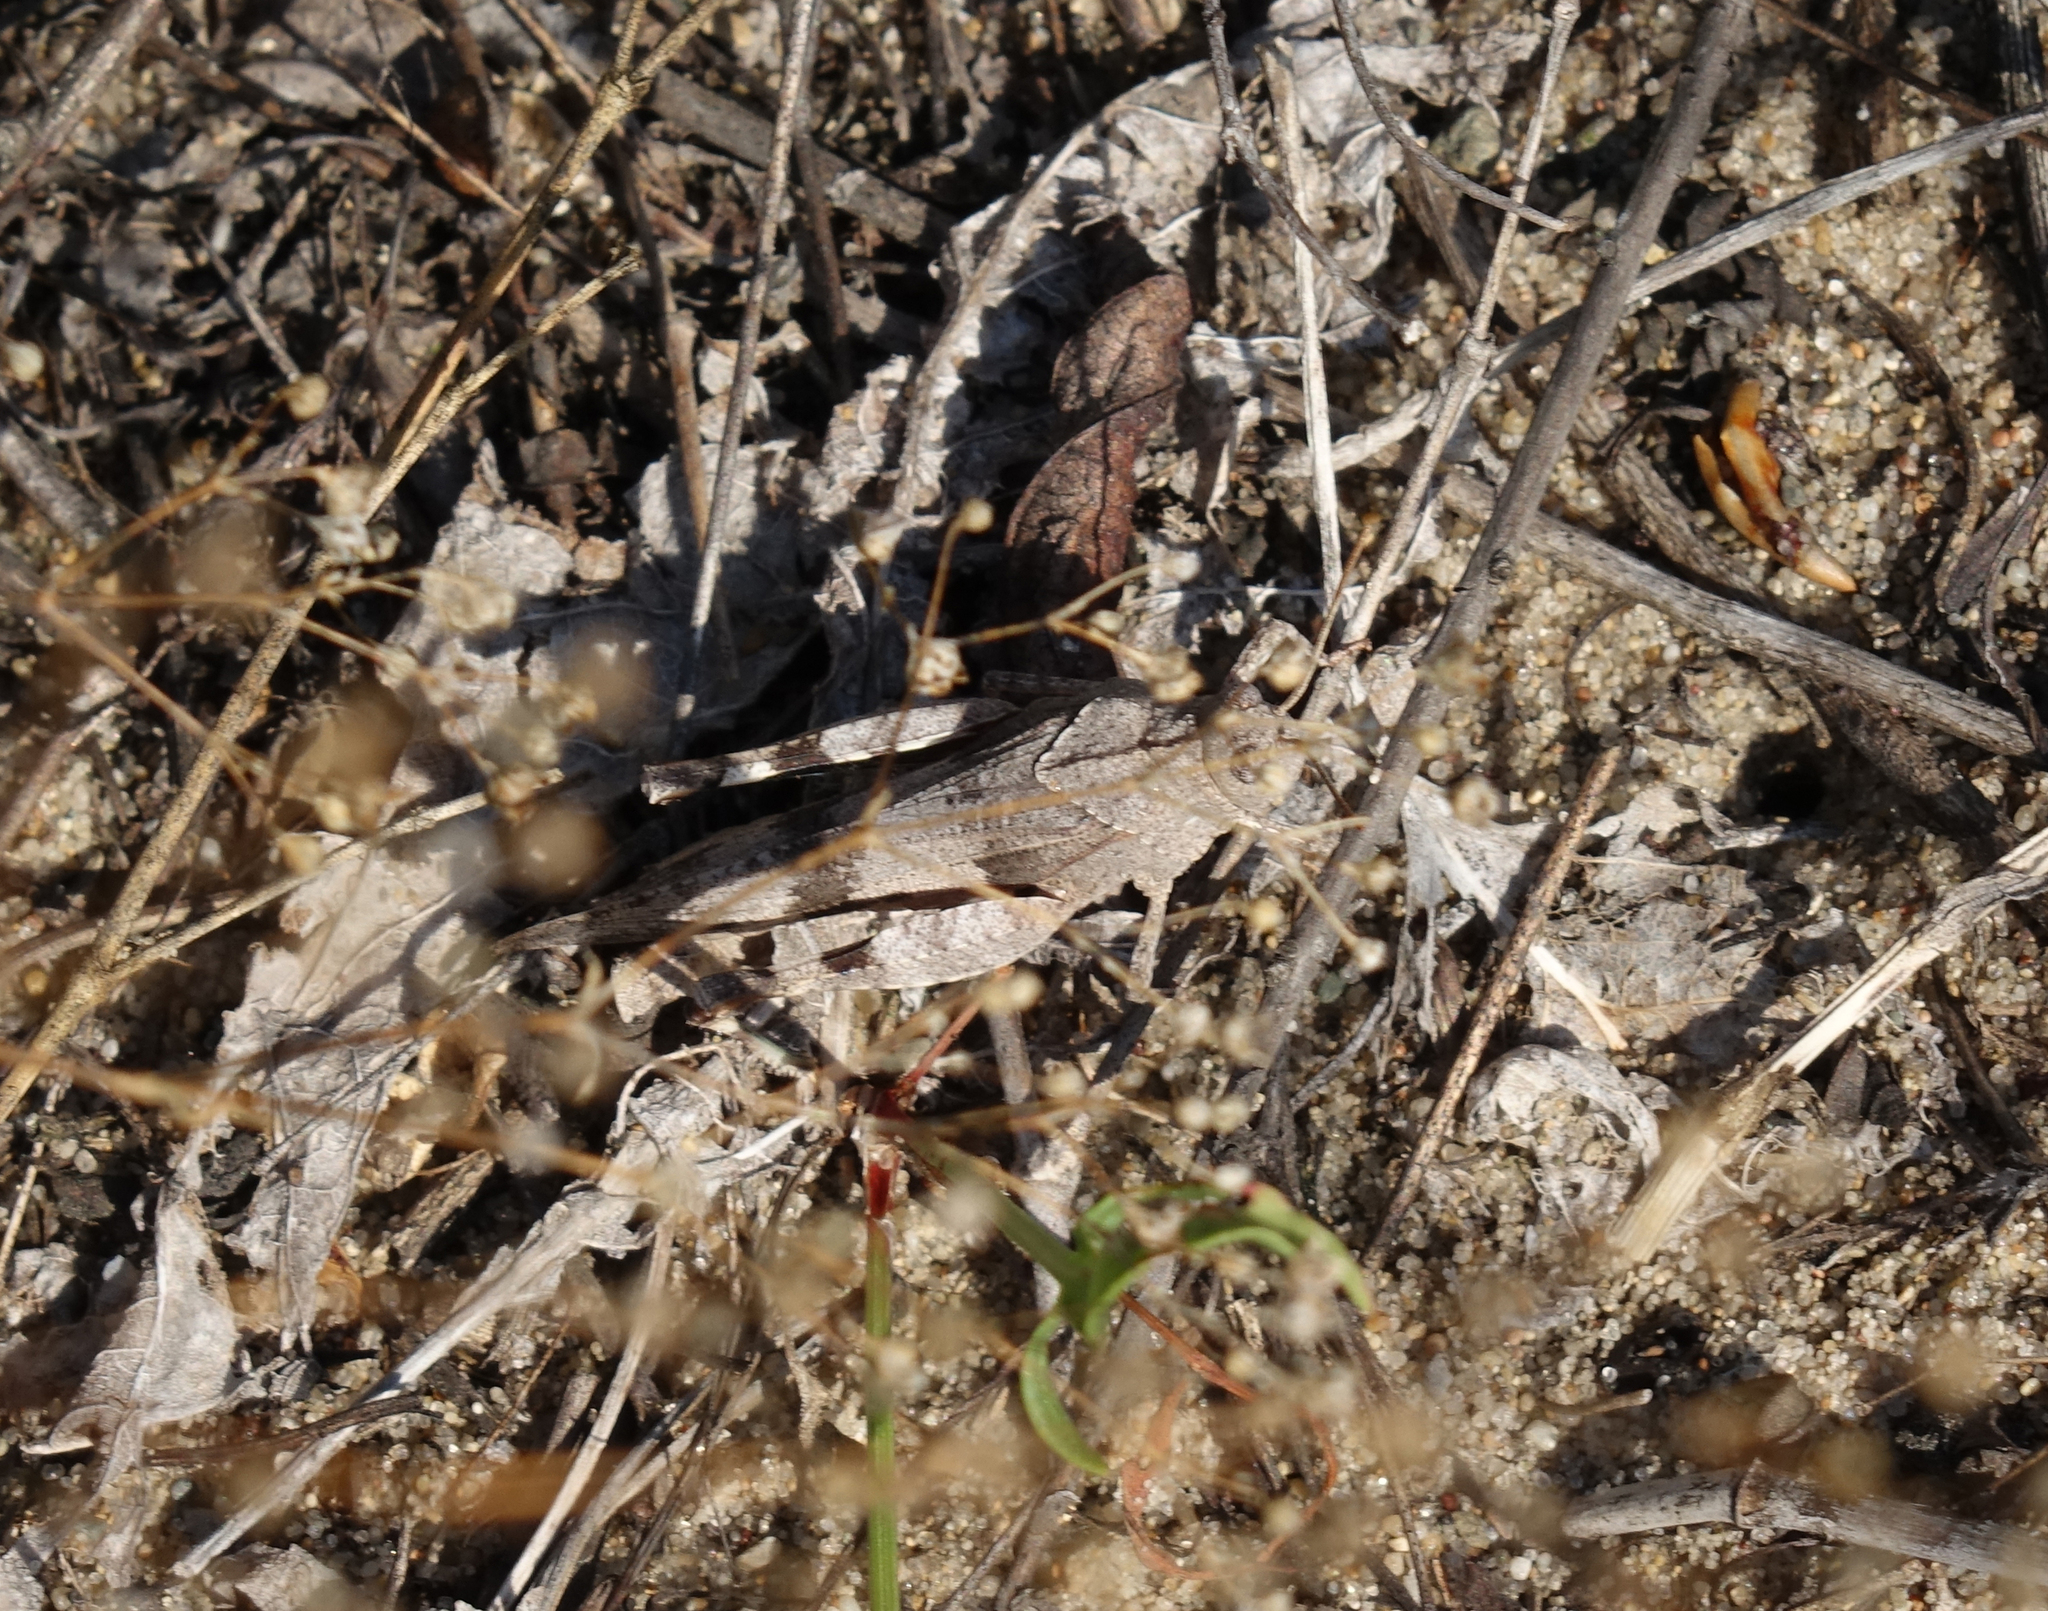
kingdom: Animalia
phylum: Arthropoda
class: Insecta
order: Orthoptera
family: Acrididae
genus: Oedipoda
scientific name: Oedipoda caerulescens
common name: Blue-winged grasshopper
